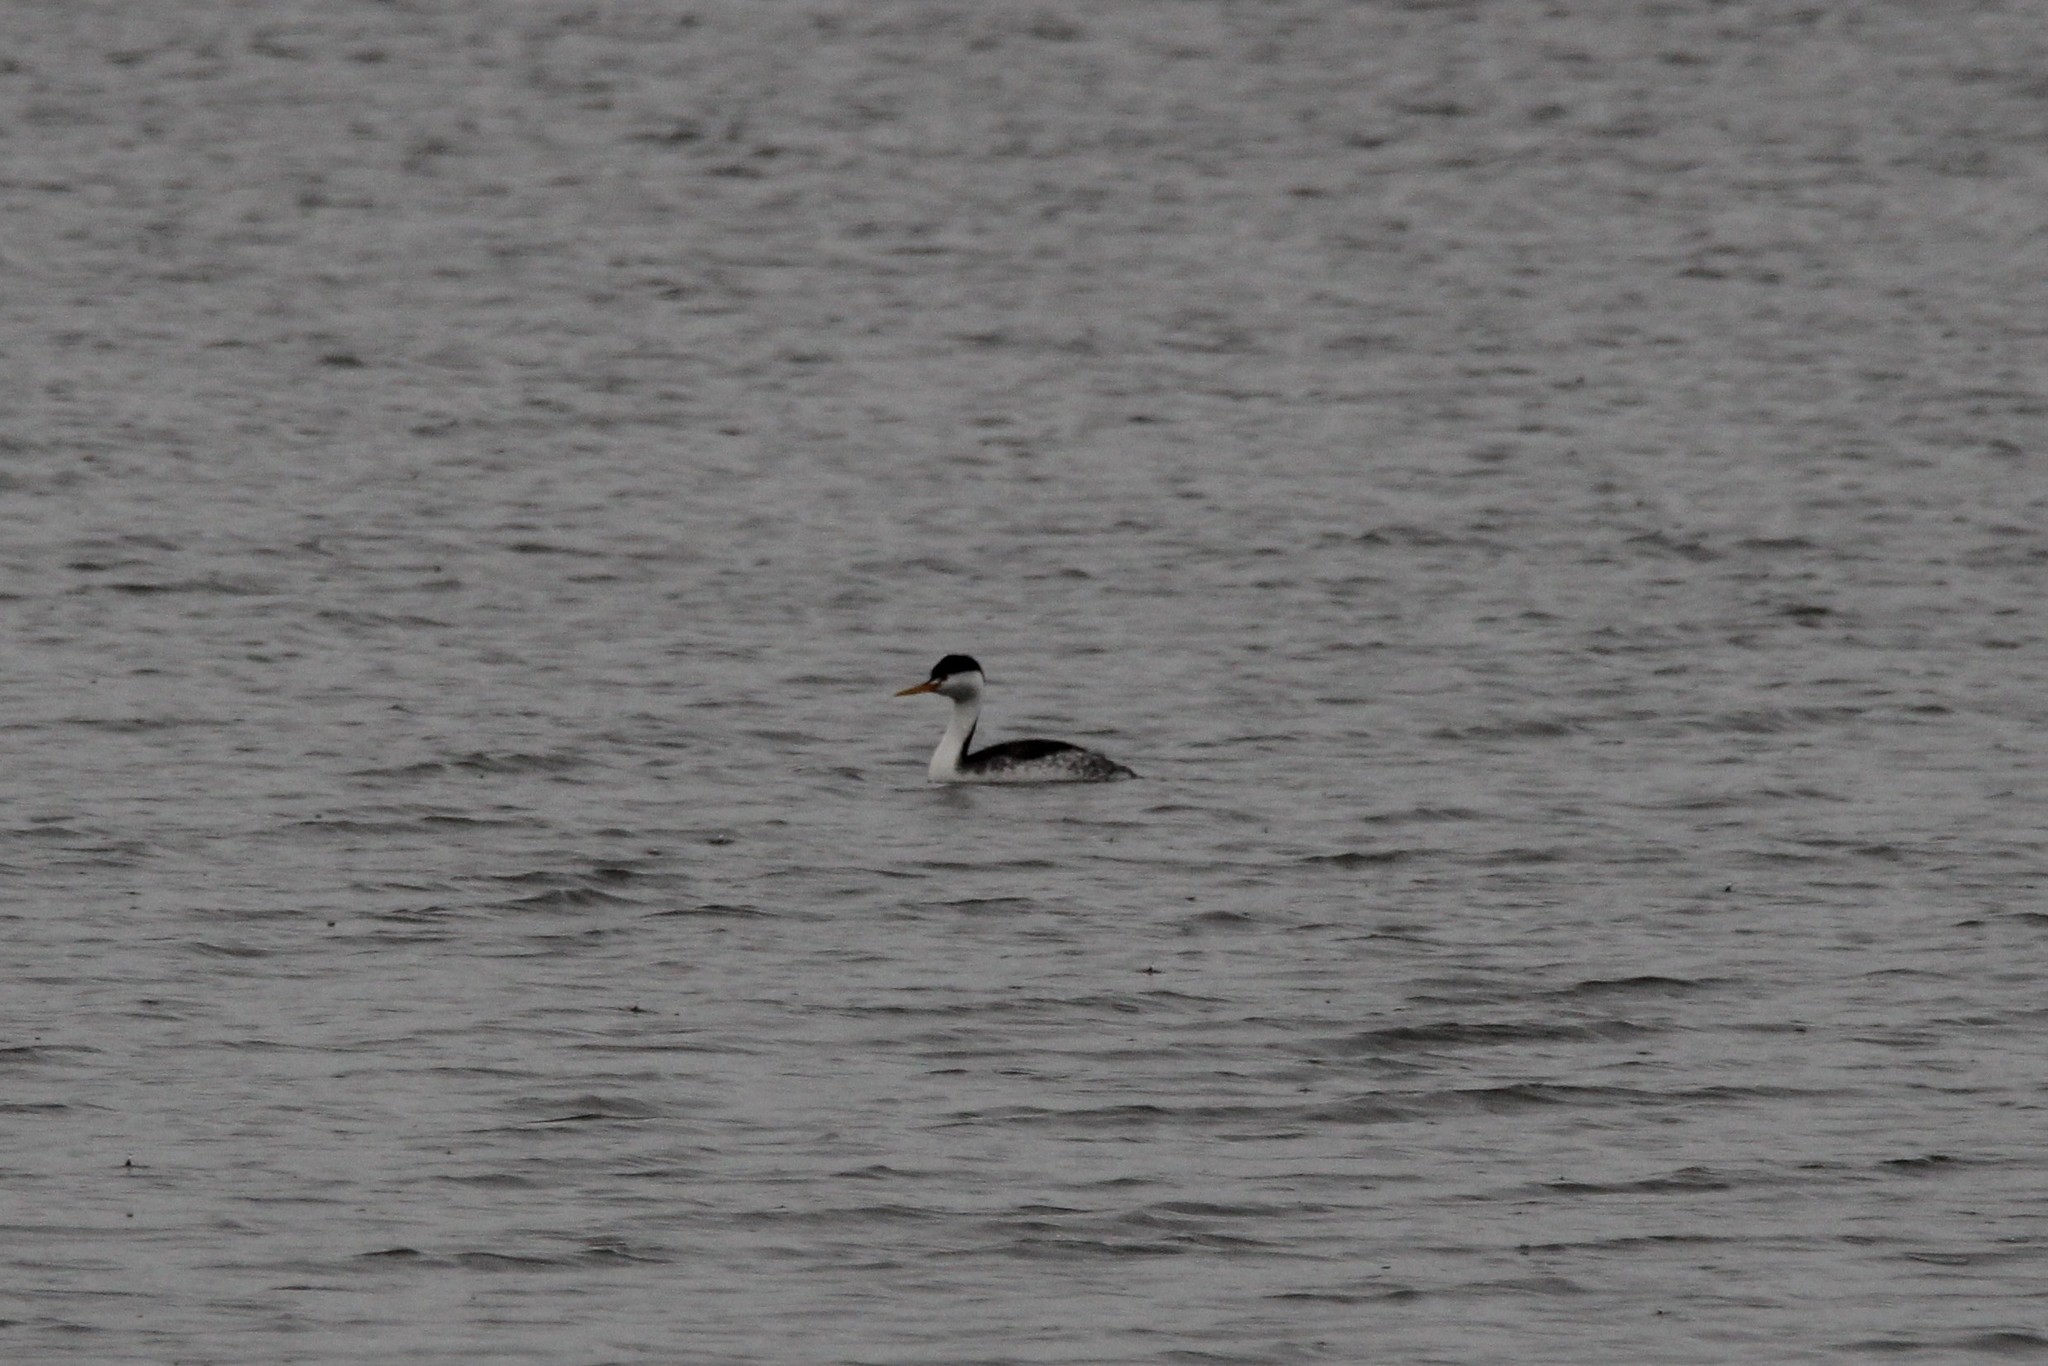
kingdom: Animalia
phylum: Chordata
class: Aves
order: Podicipediformes
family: Podicipedidae
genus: Aechmophorus
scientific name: Aechmophorus clarkii
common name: Clark's grebe
